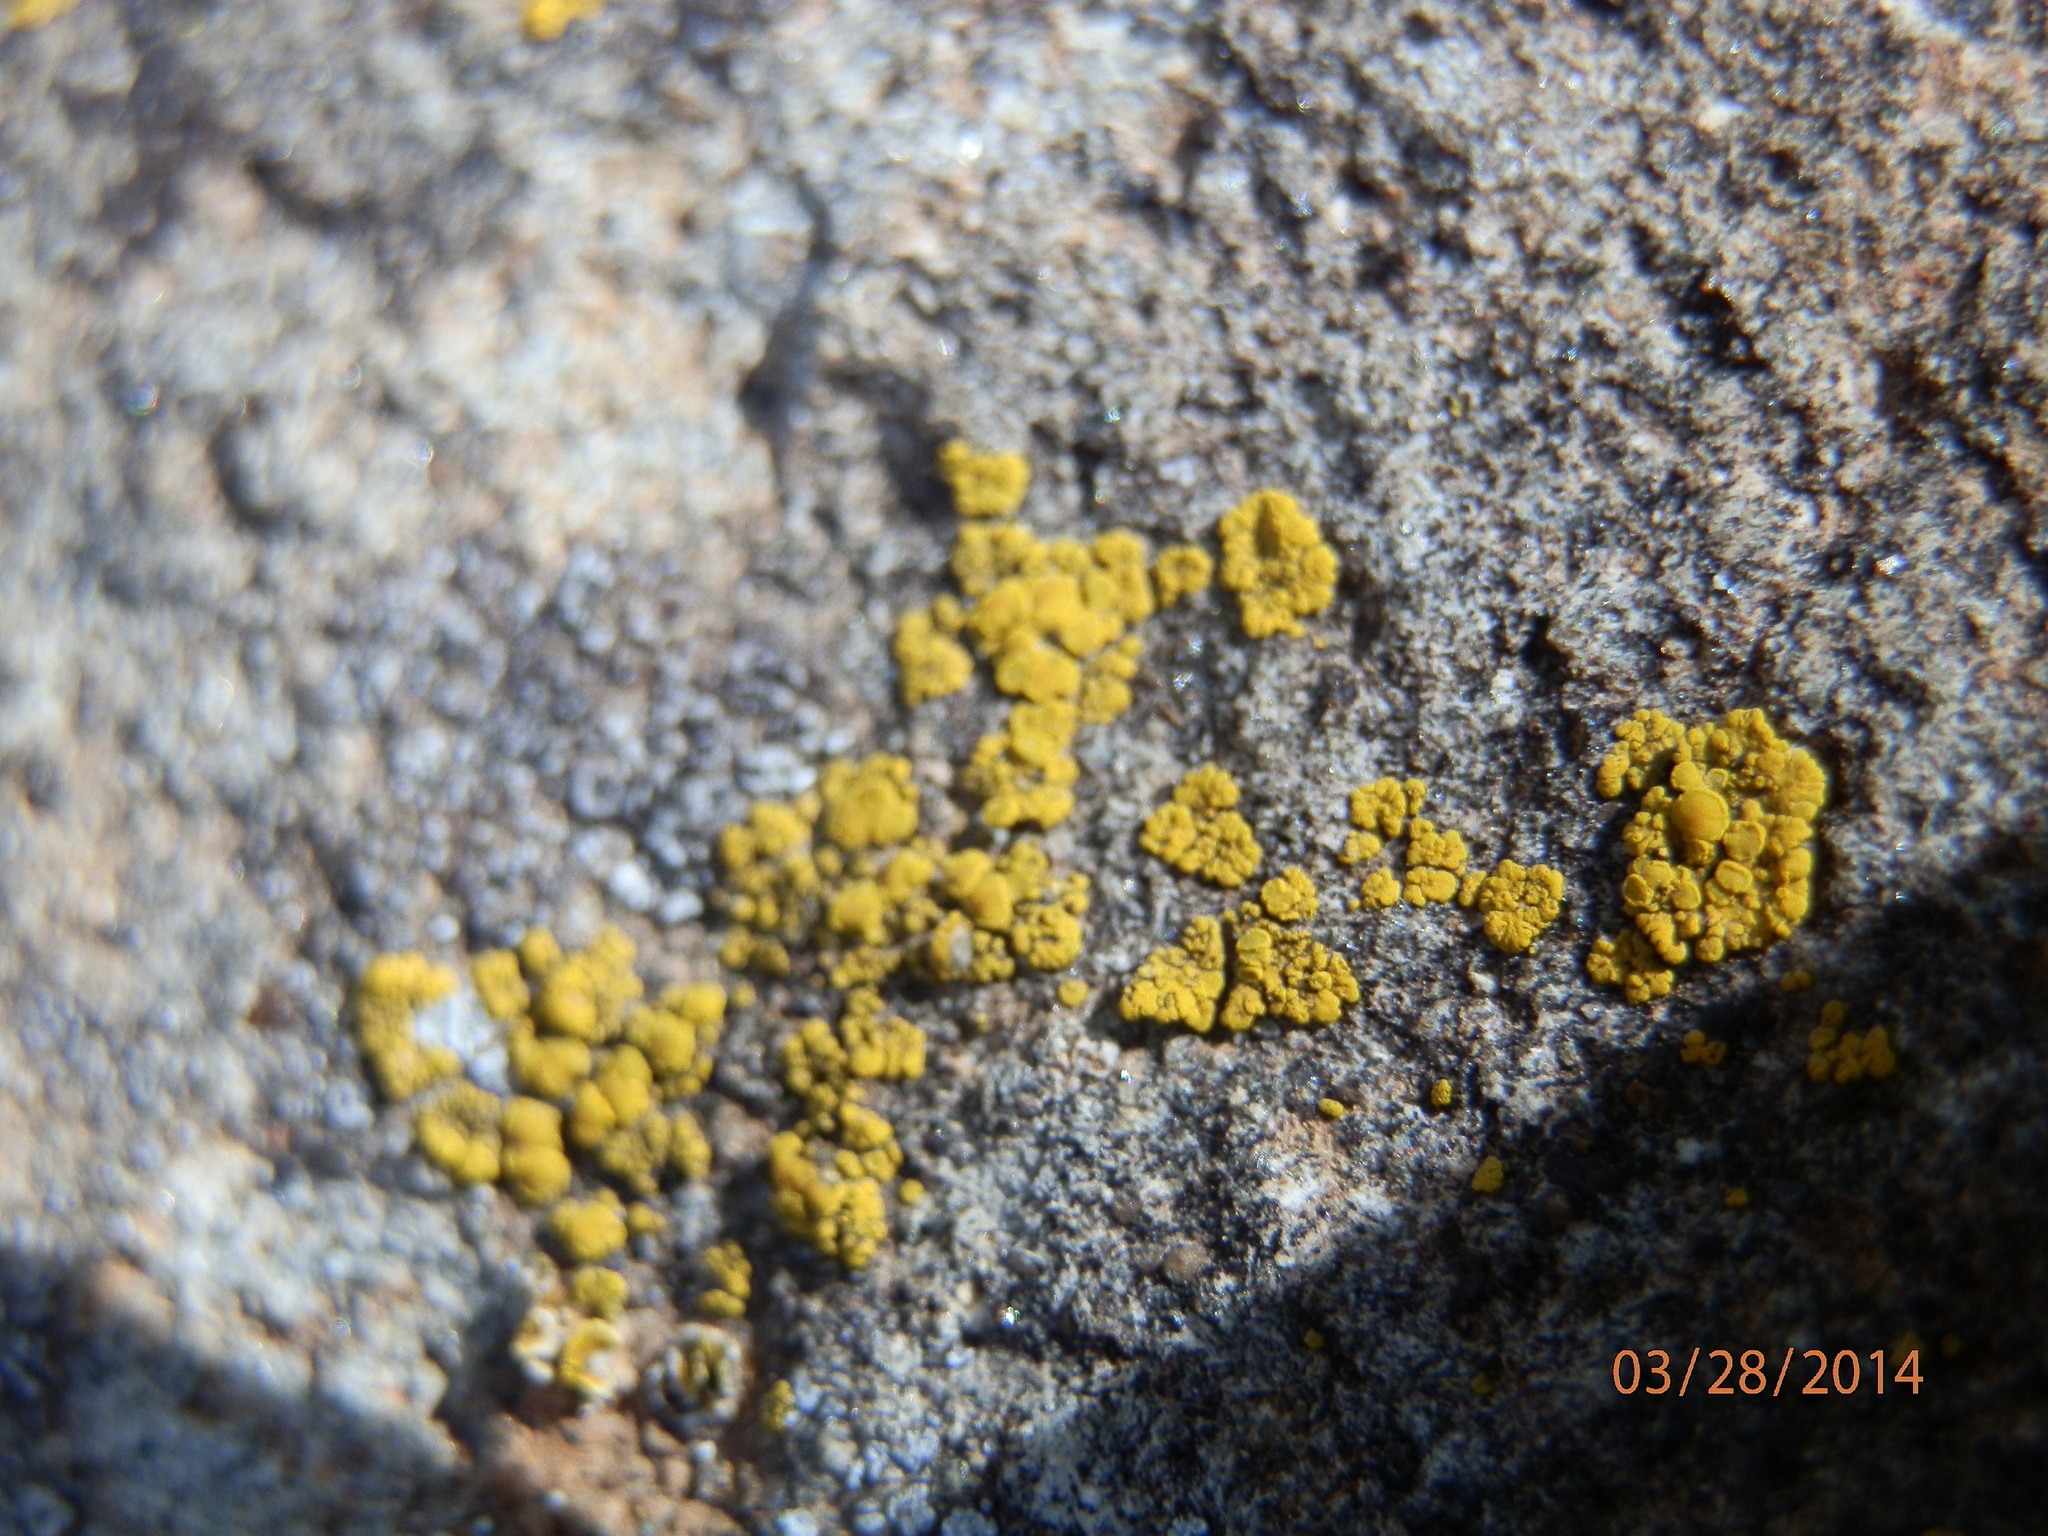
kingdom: Fungi
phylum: Ascomycota
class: Candelariomycetes
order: Candelariales
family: Candelariaceae
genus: Candelariella
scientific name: Candelariella aurella
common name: Hidden goldspeck lichen
